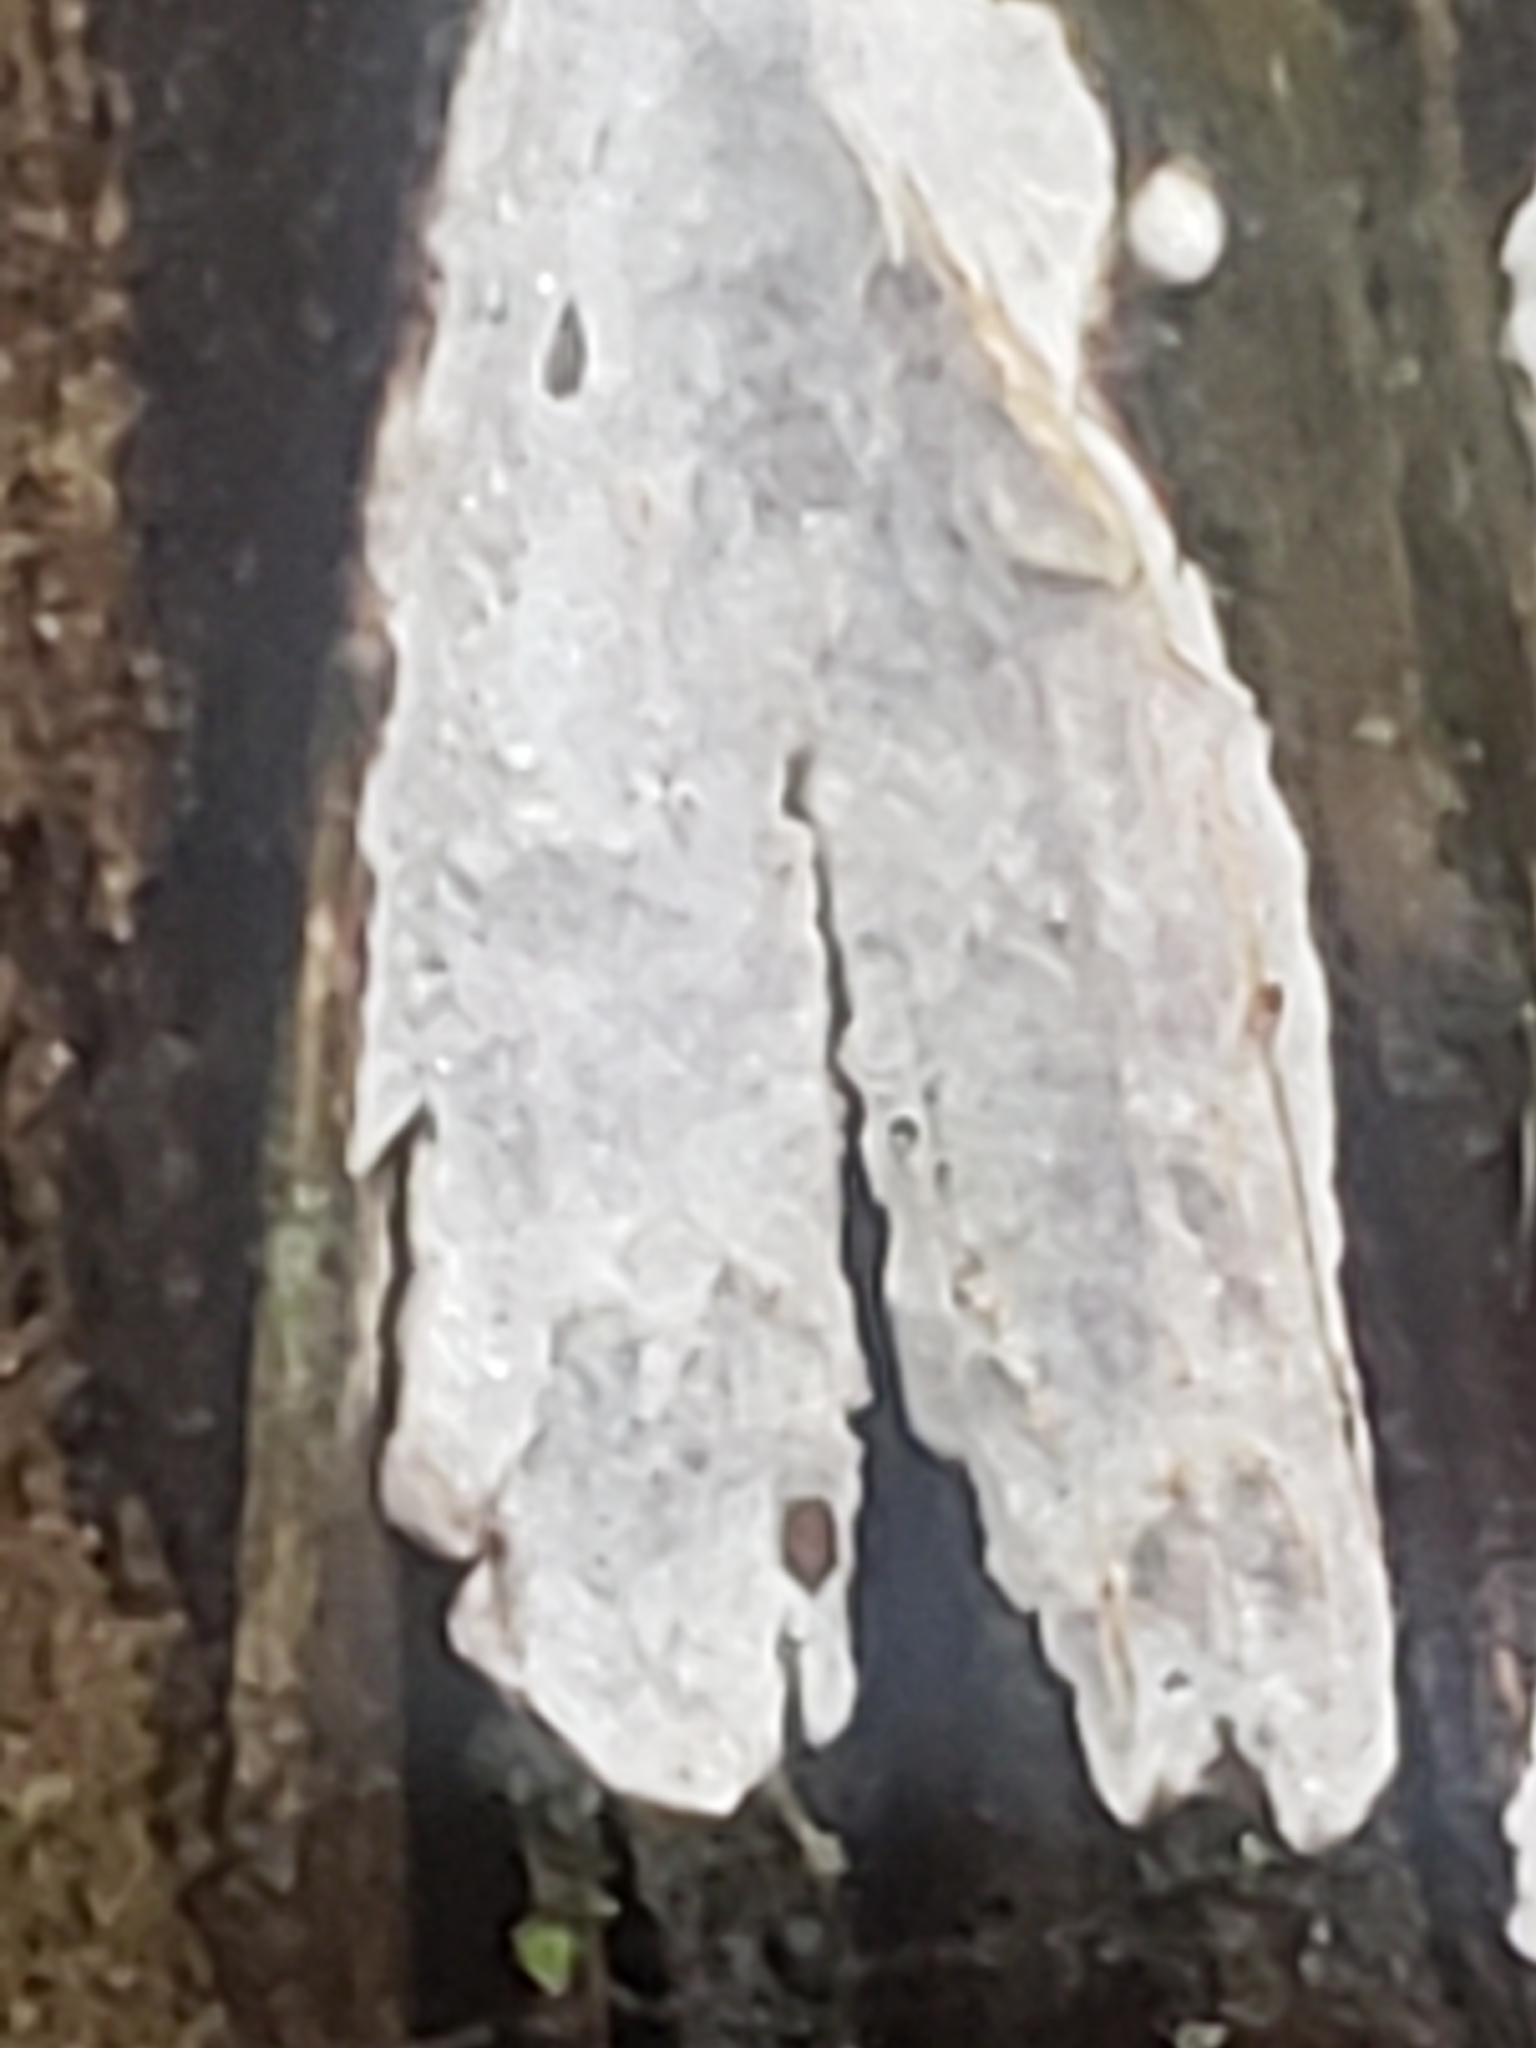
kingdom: Fungi
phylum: Basidiomycota
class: Agaricomycetes
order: Agaricales
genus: Dendrothele
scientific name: Dendrothele nivosa
